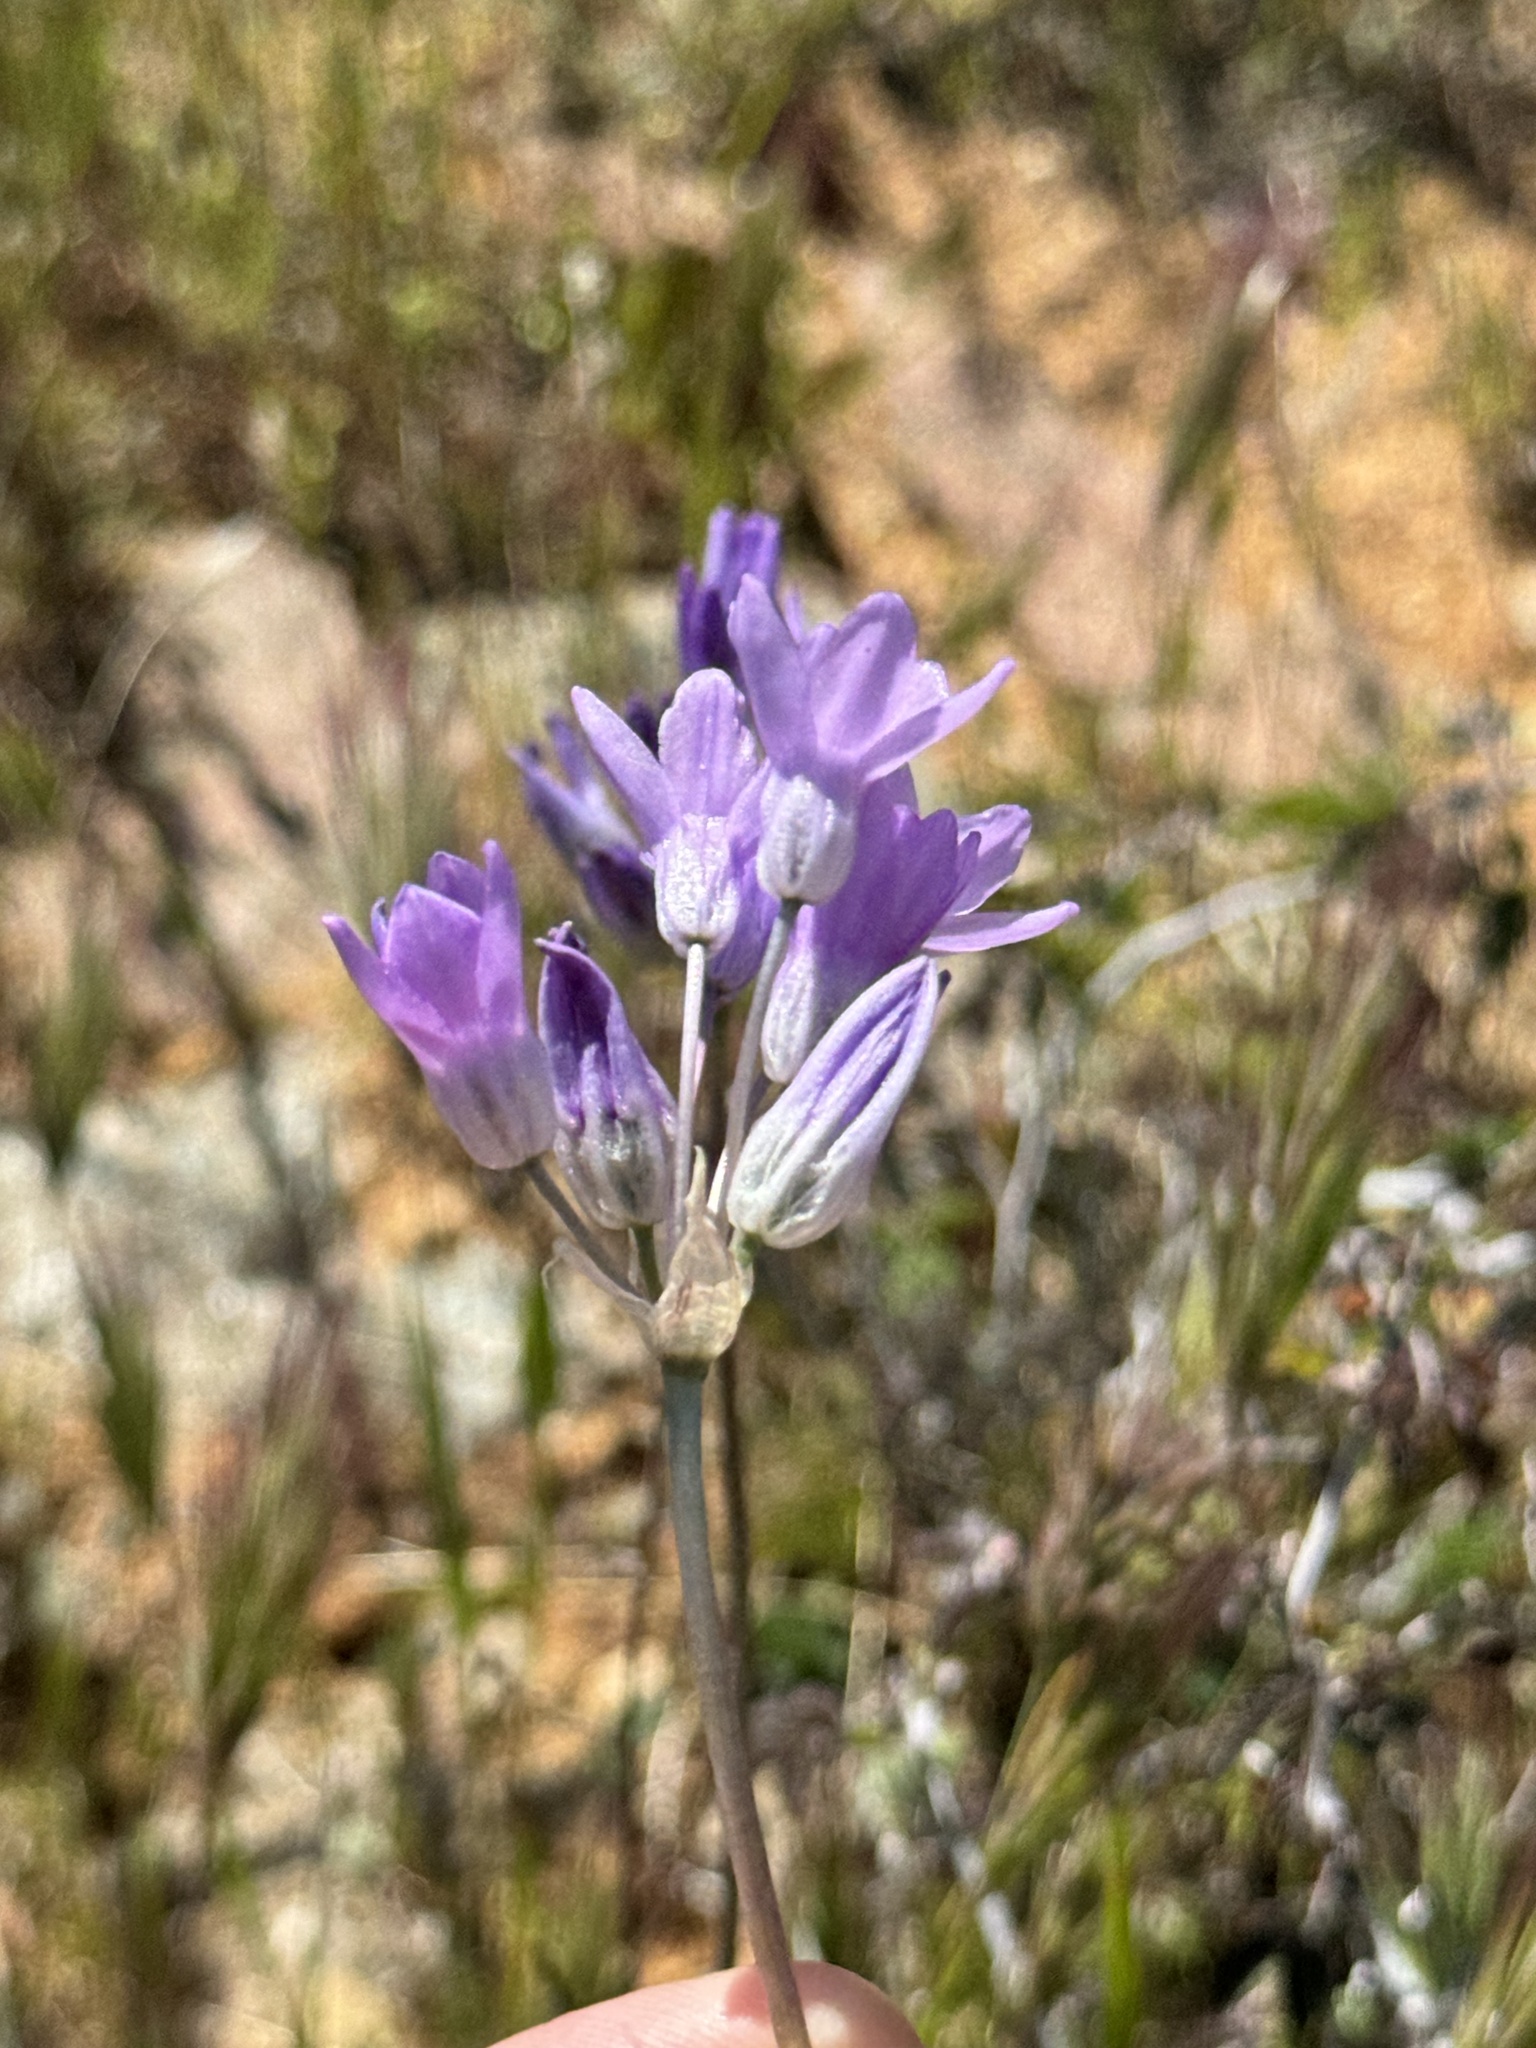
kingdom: Plantae
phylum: Tracheophyta
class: Liliopsida
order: Asparagales
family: Asparagaceae
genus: Dipterostemon
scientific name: Dipterostemon capitatus
